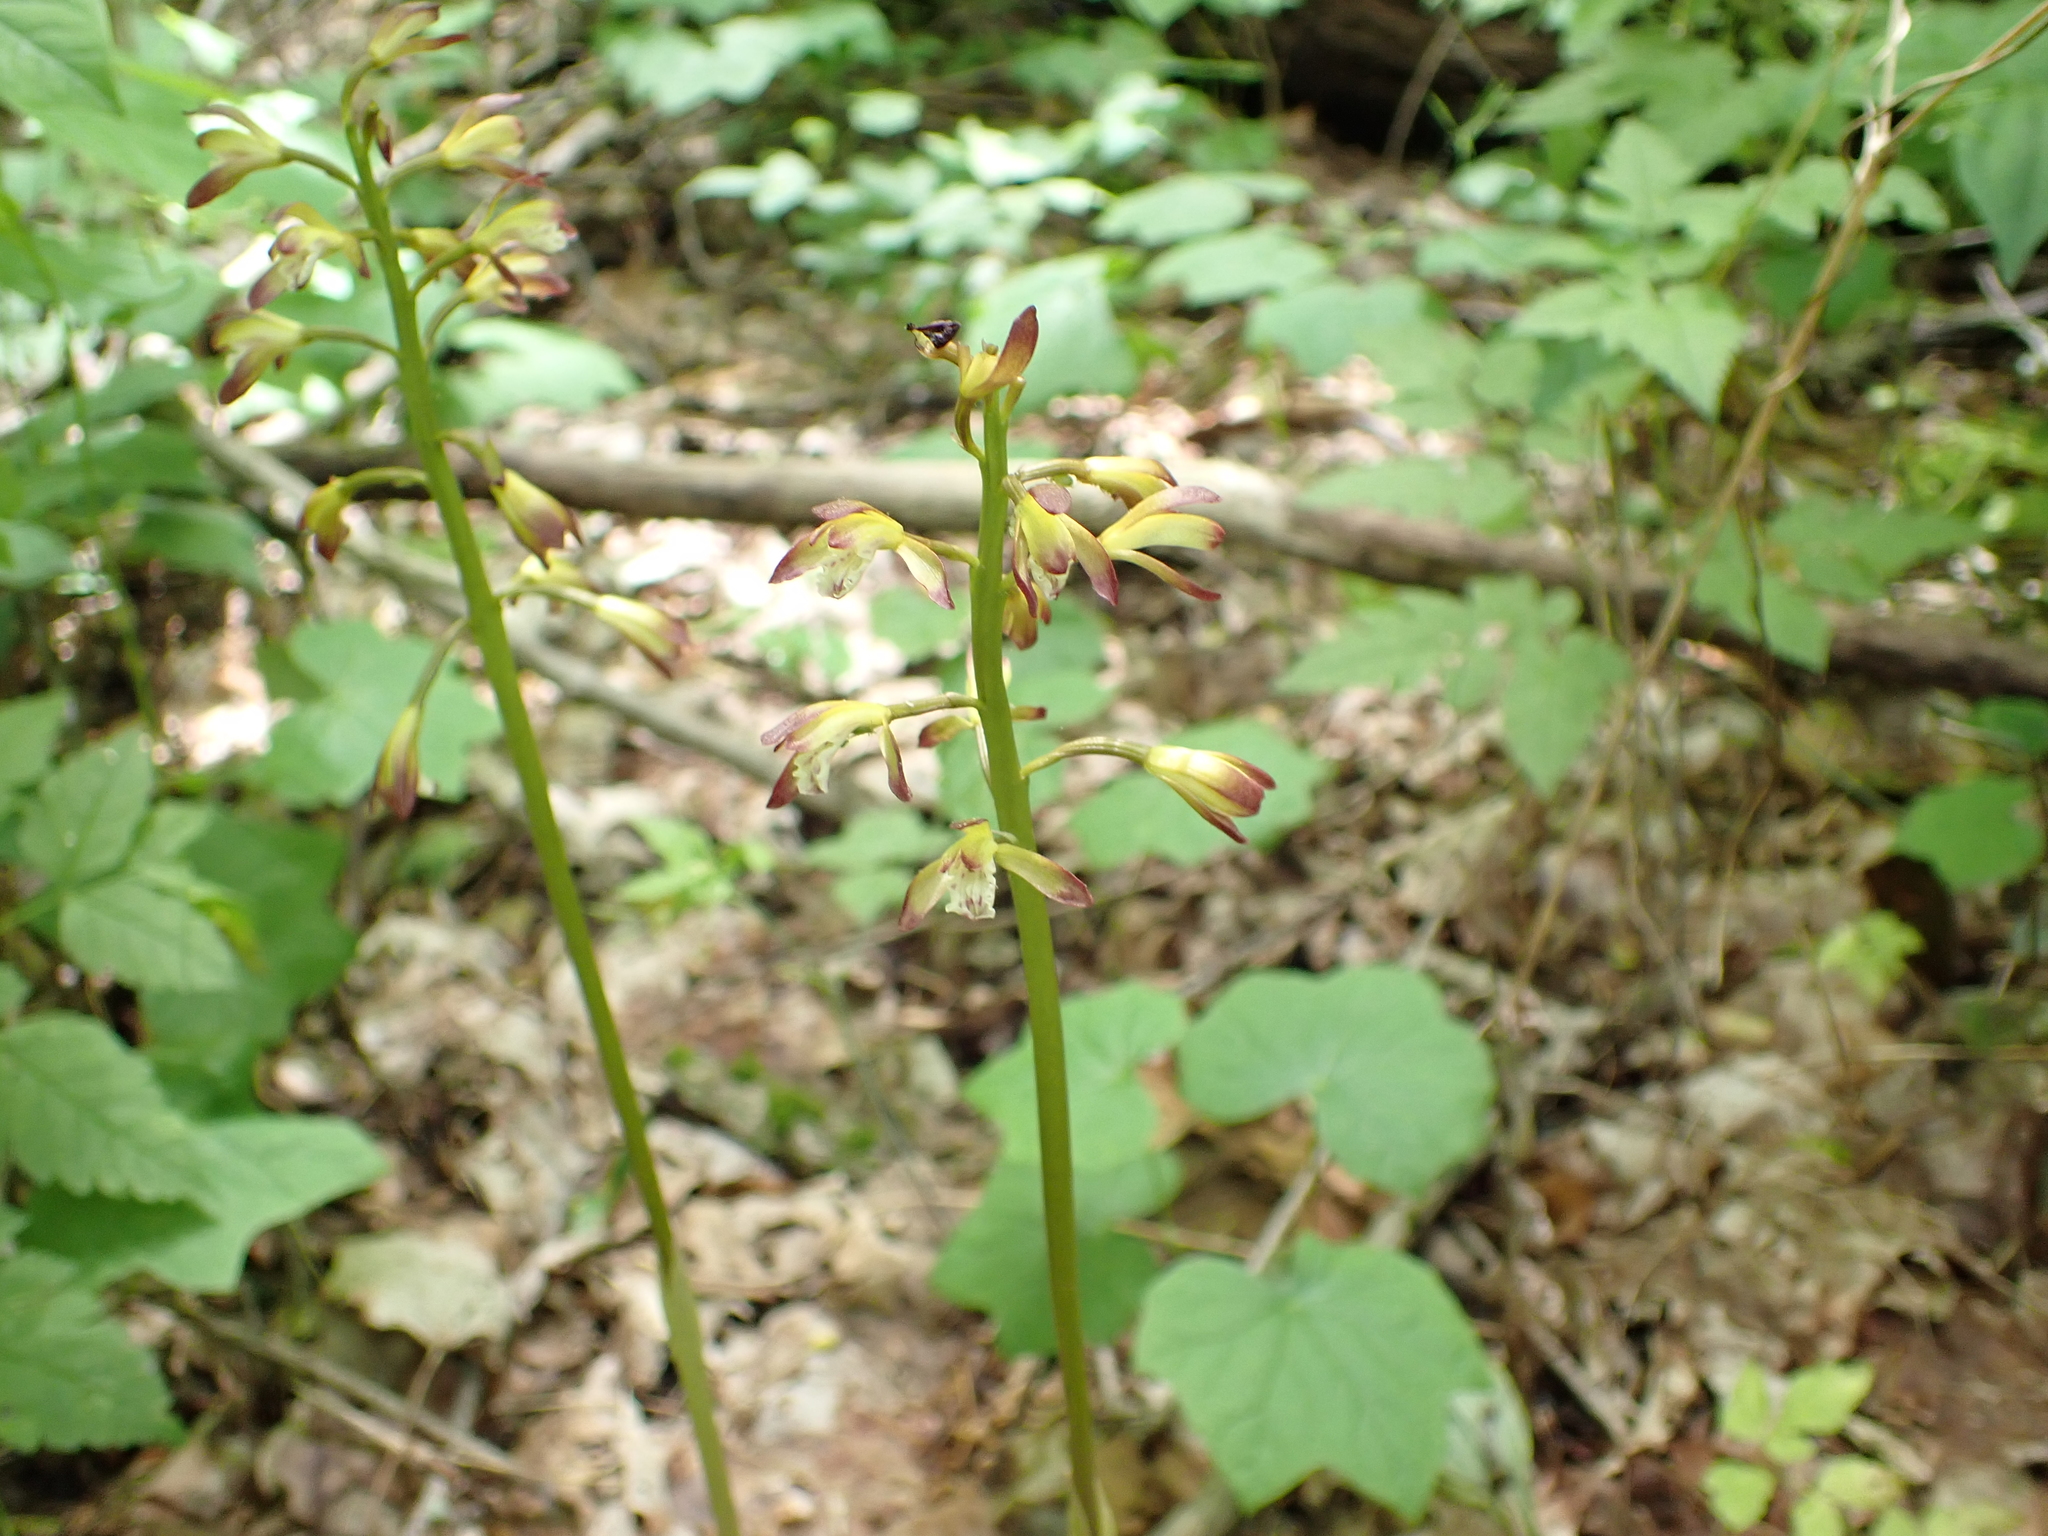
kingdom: Plantae
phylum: Tracheophyta
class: Liliopsida
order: Asparagales
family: Orchidaceae
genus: Aplectrum
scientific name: Aplectrum hyemale
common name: Adam-and-eve
